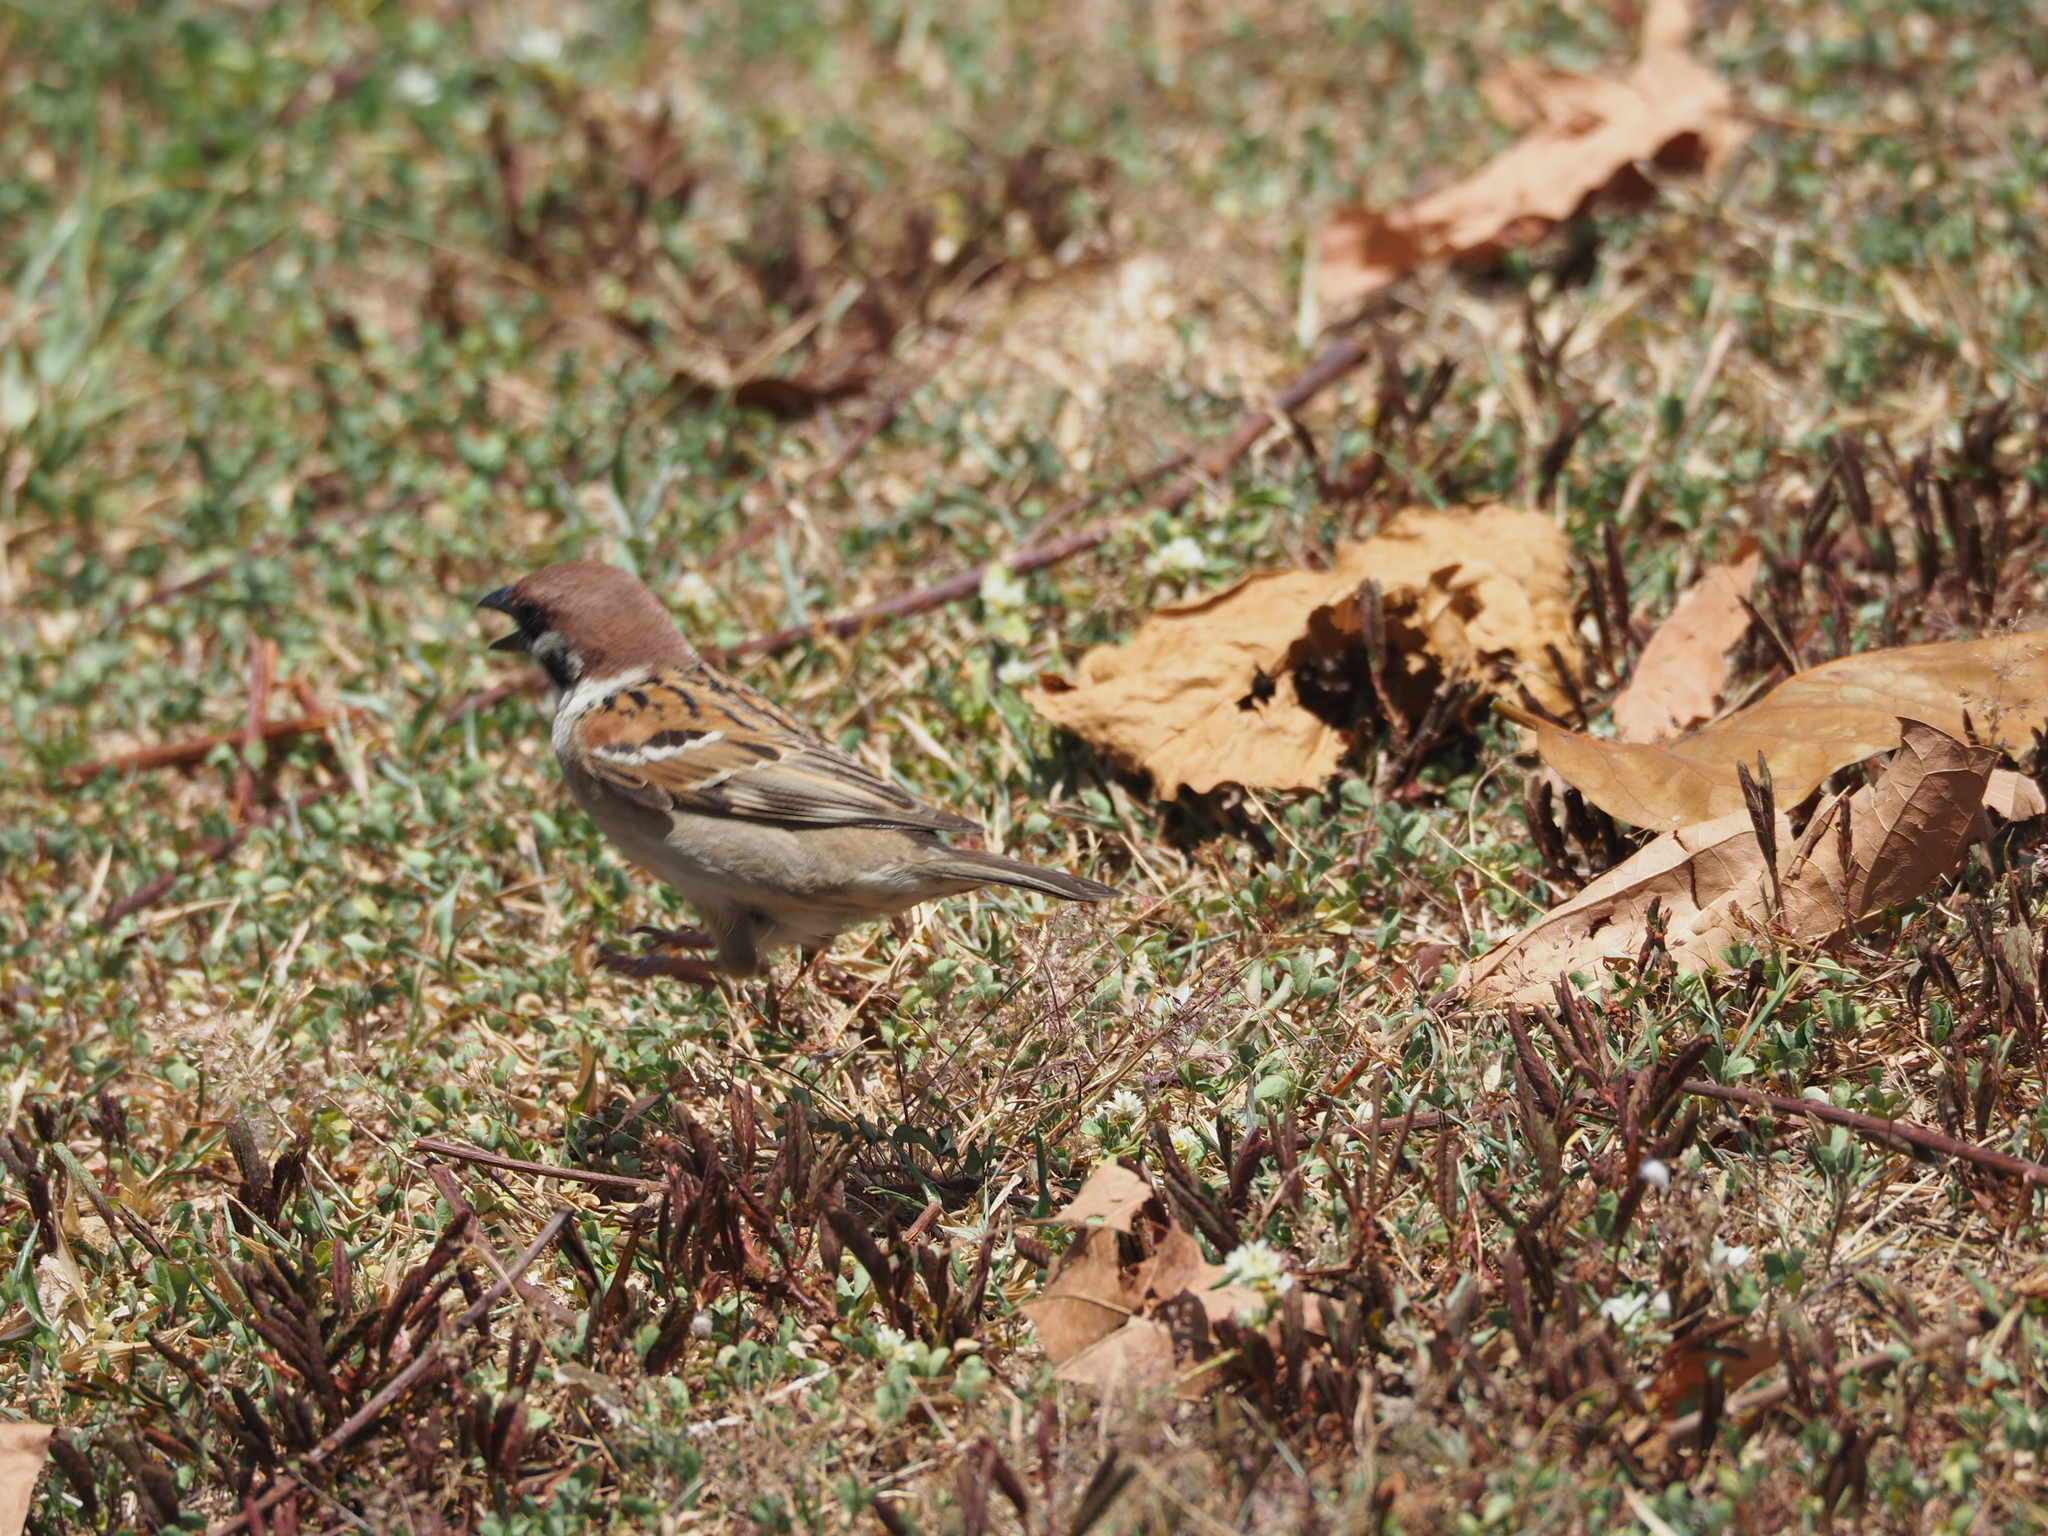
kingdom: Animalia
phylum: Chordata
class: Aves
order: Passeriformes
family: Passeridae
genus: Passer
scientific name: Passer montanus
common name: Eurasian tree sparrow
